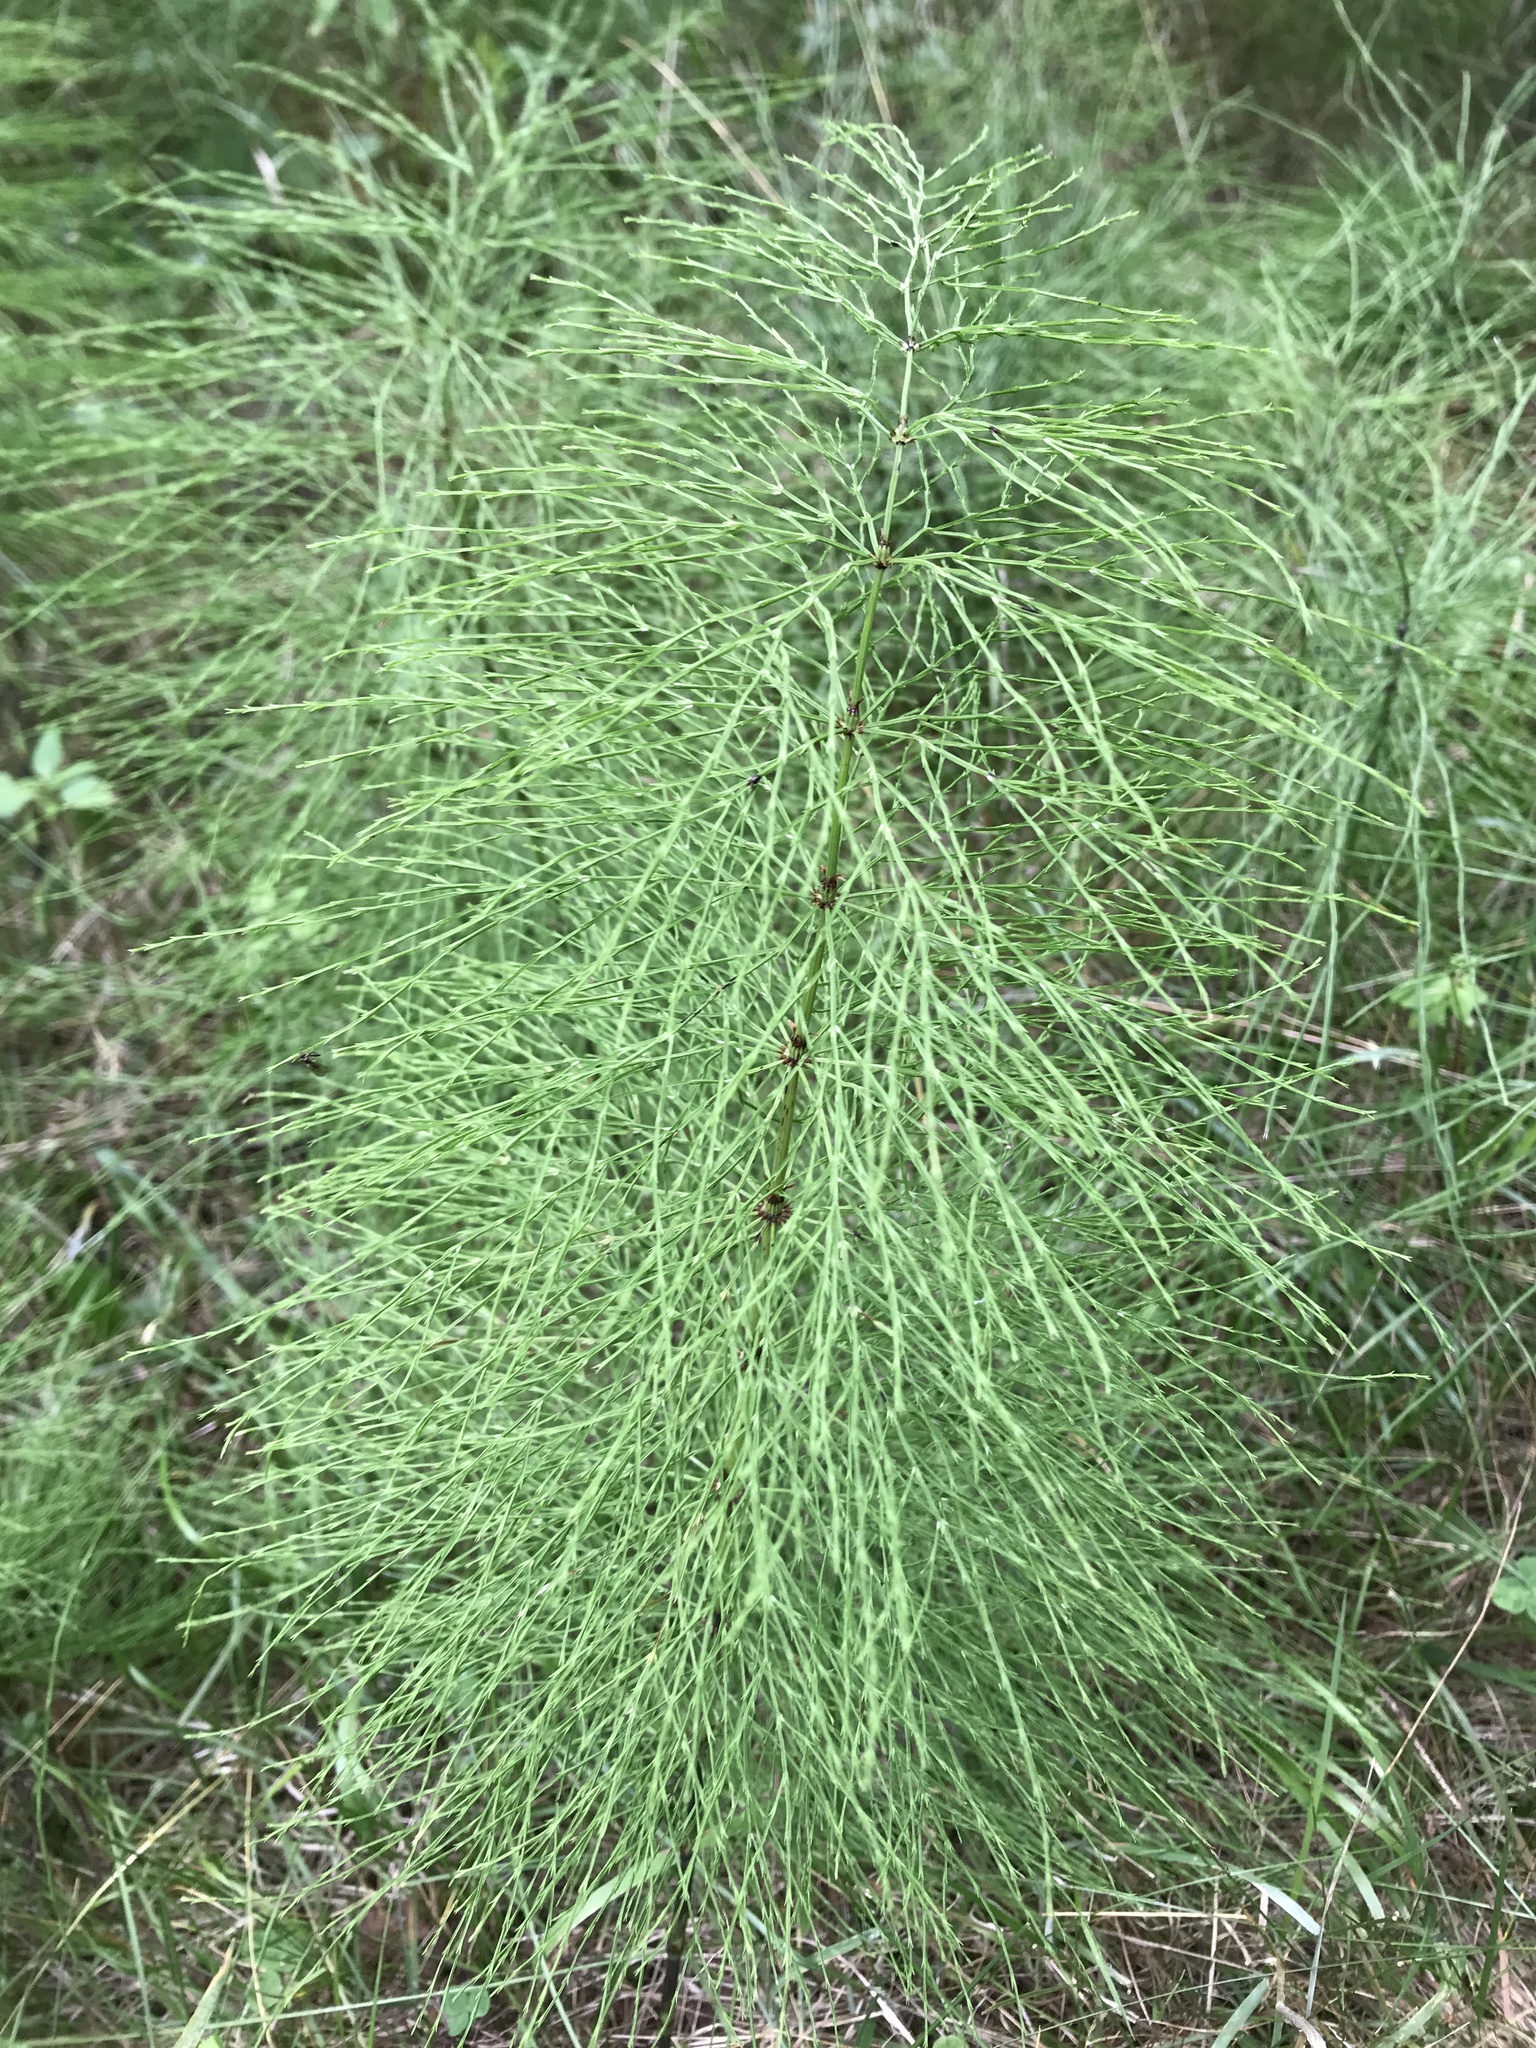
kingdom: Plantae
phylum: Tracheophyta
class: Polypodiopsida
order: Equisetales
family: Equisetaceae
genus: Equisetum
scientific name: Equisetum sylvaticum
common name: Wood horsetail
